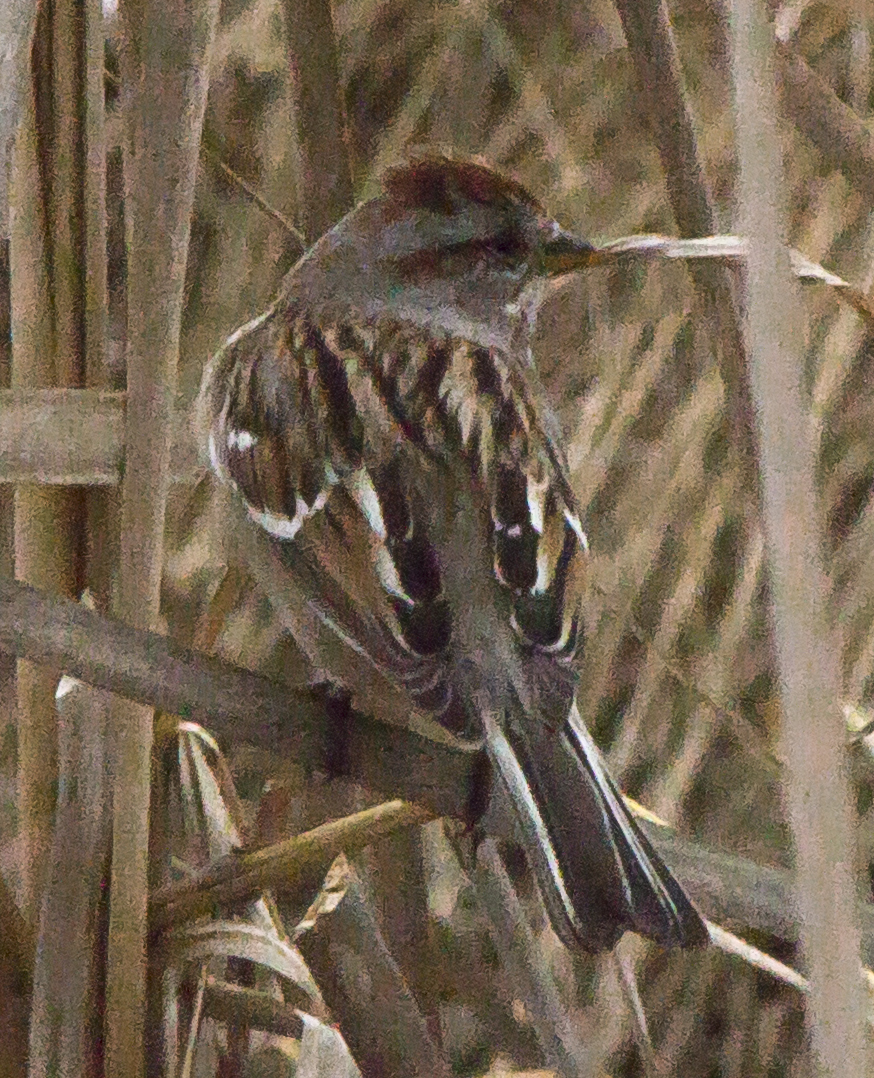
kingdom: Animalia
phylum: Chordata
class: Aves
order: Passeriformes
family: Passerellidae
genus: Spizelloides
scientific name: Spizelloides arborea
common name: American tree sparrow
